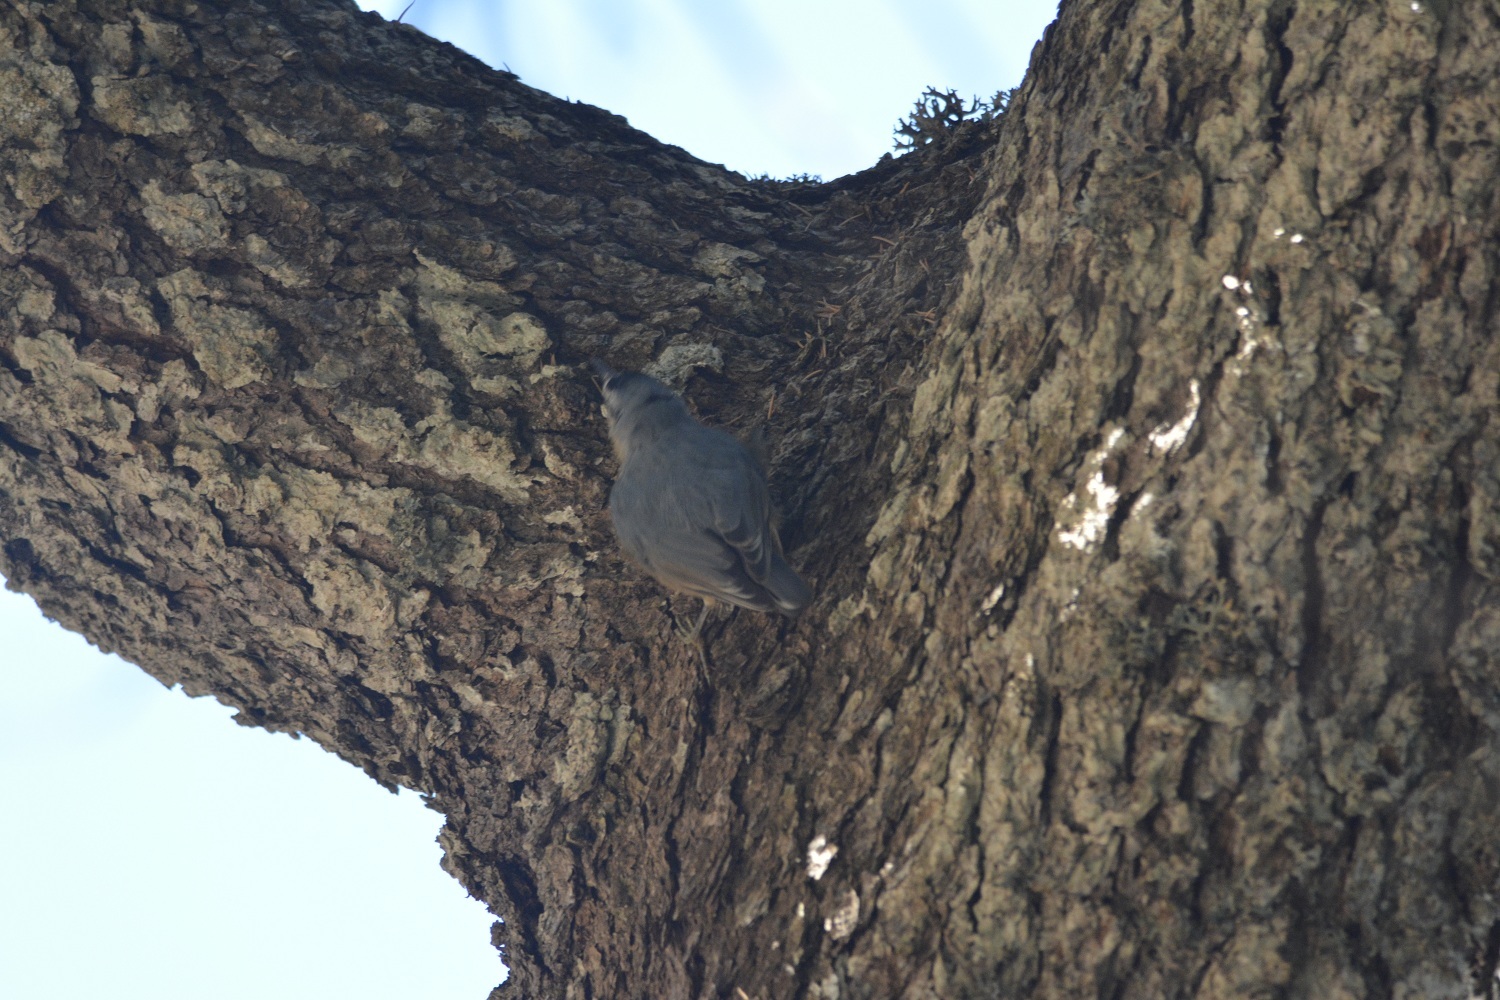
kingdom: Animalia
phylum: Chordata
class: Aves
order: Passeriformes
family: Sittidae
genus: Sitta
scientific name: Sitta ledanti
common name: Algerian nuthatch
